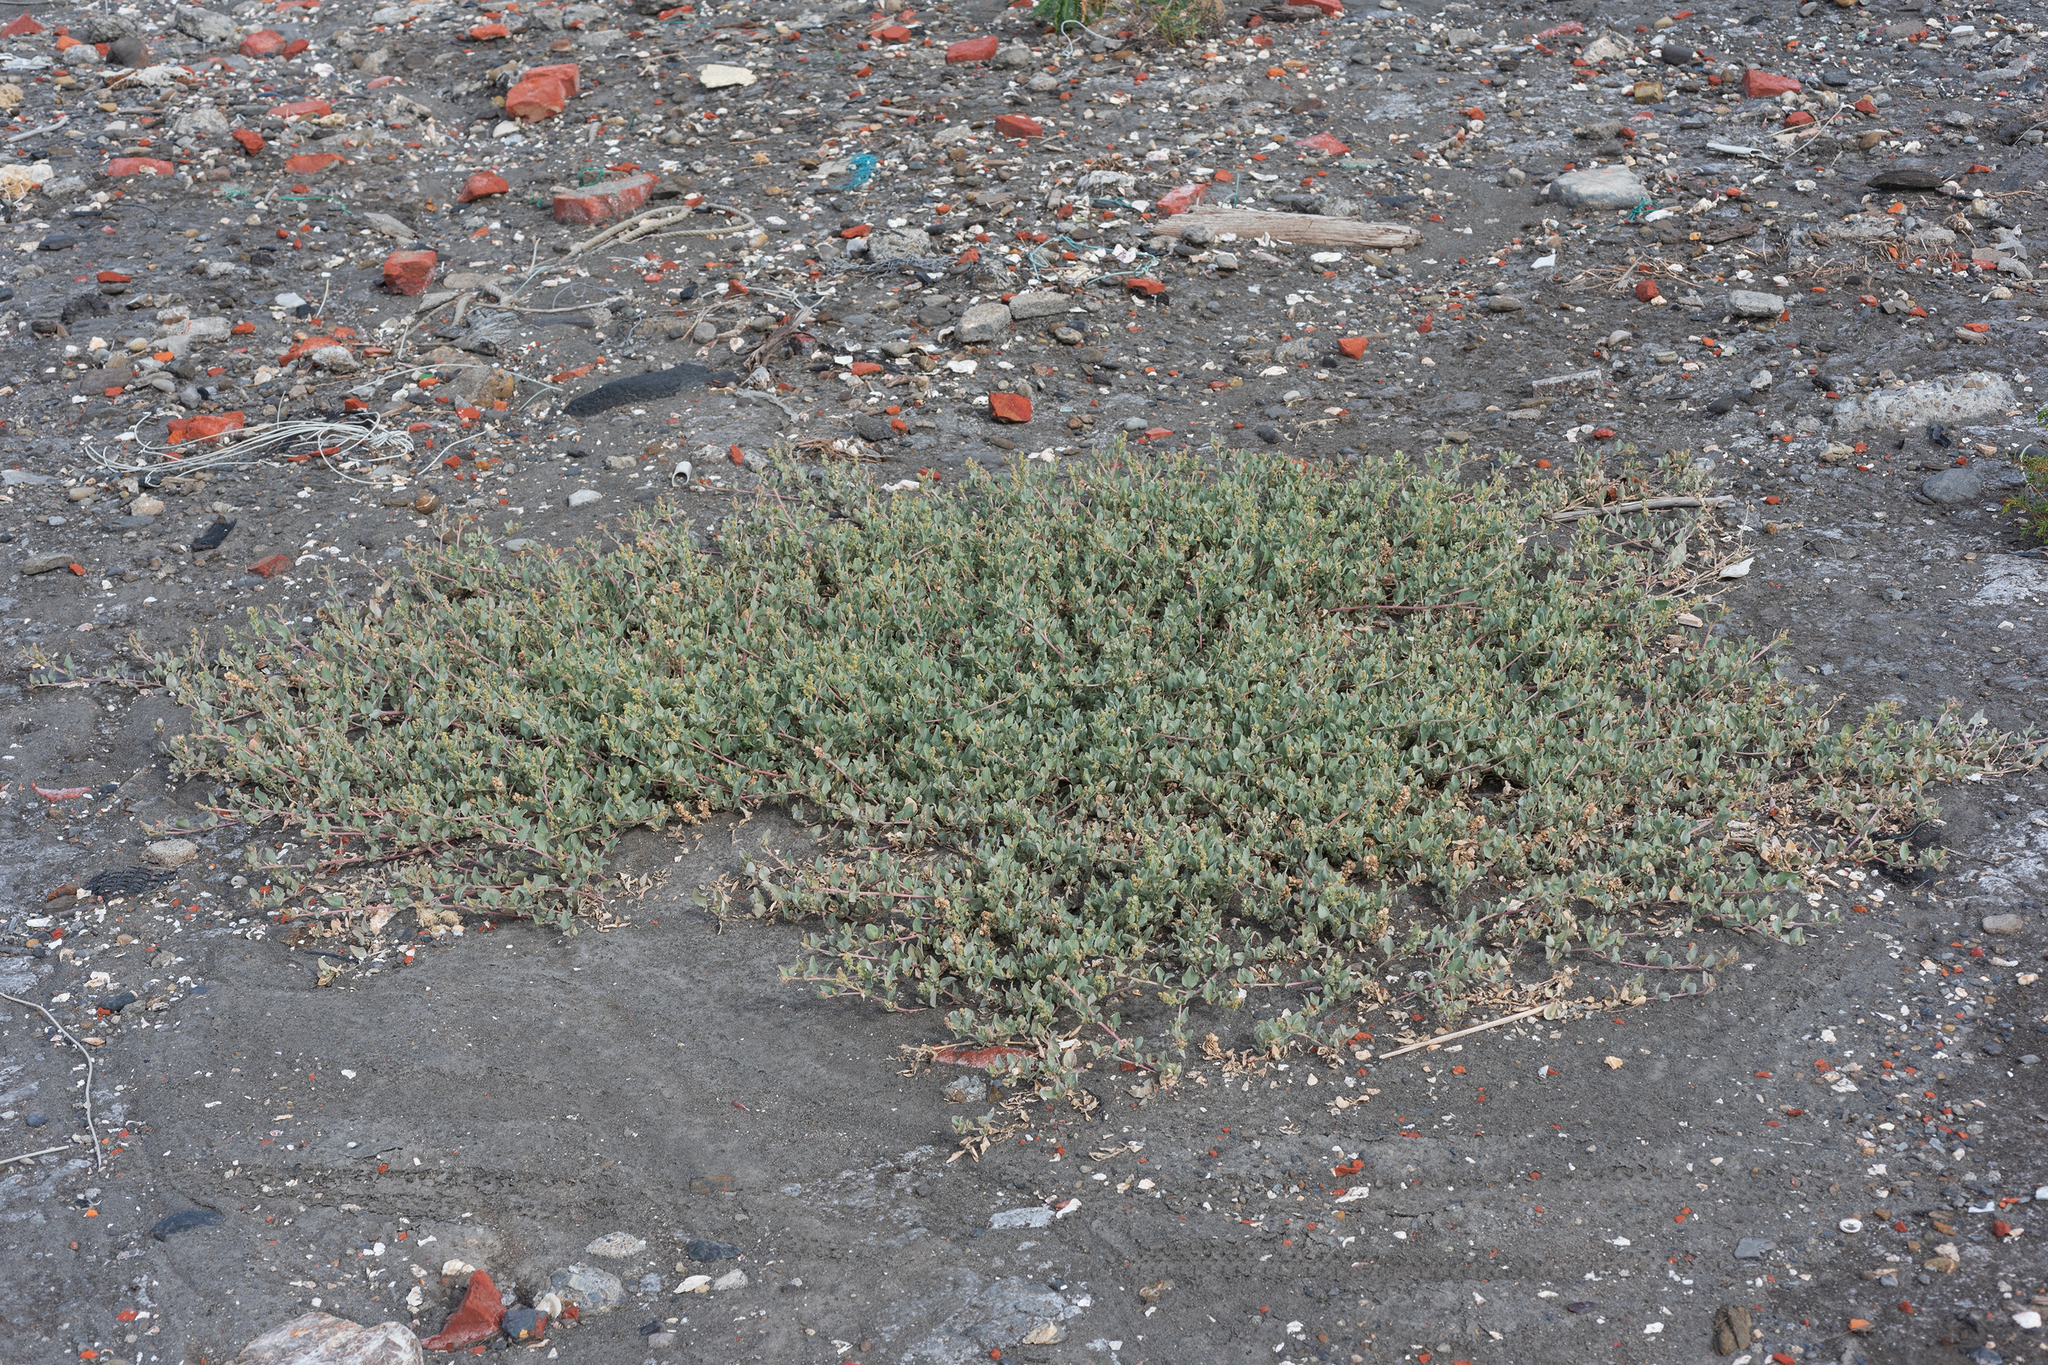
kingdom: Plantae
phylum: Tracheophyta
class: Magnoliopsida
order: Caryophyllales
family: Amaranthaceae
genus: Atriplex
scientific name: Atriplex maximowicziana
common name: Maximowicz's saltbush
